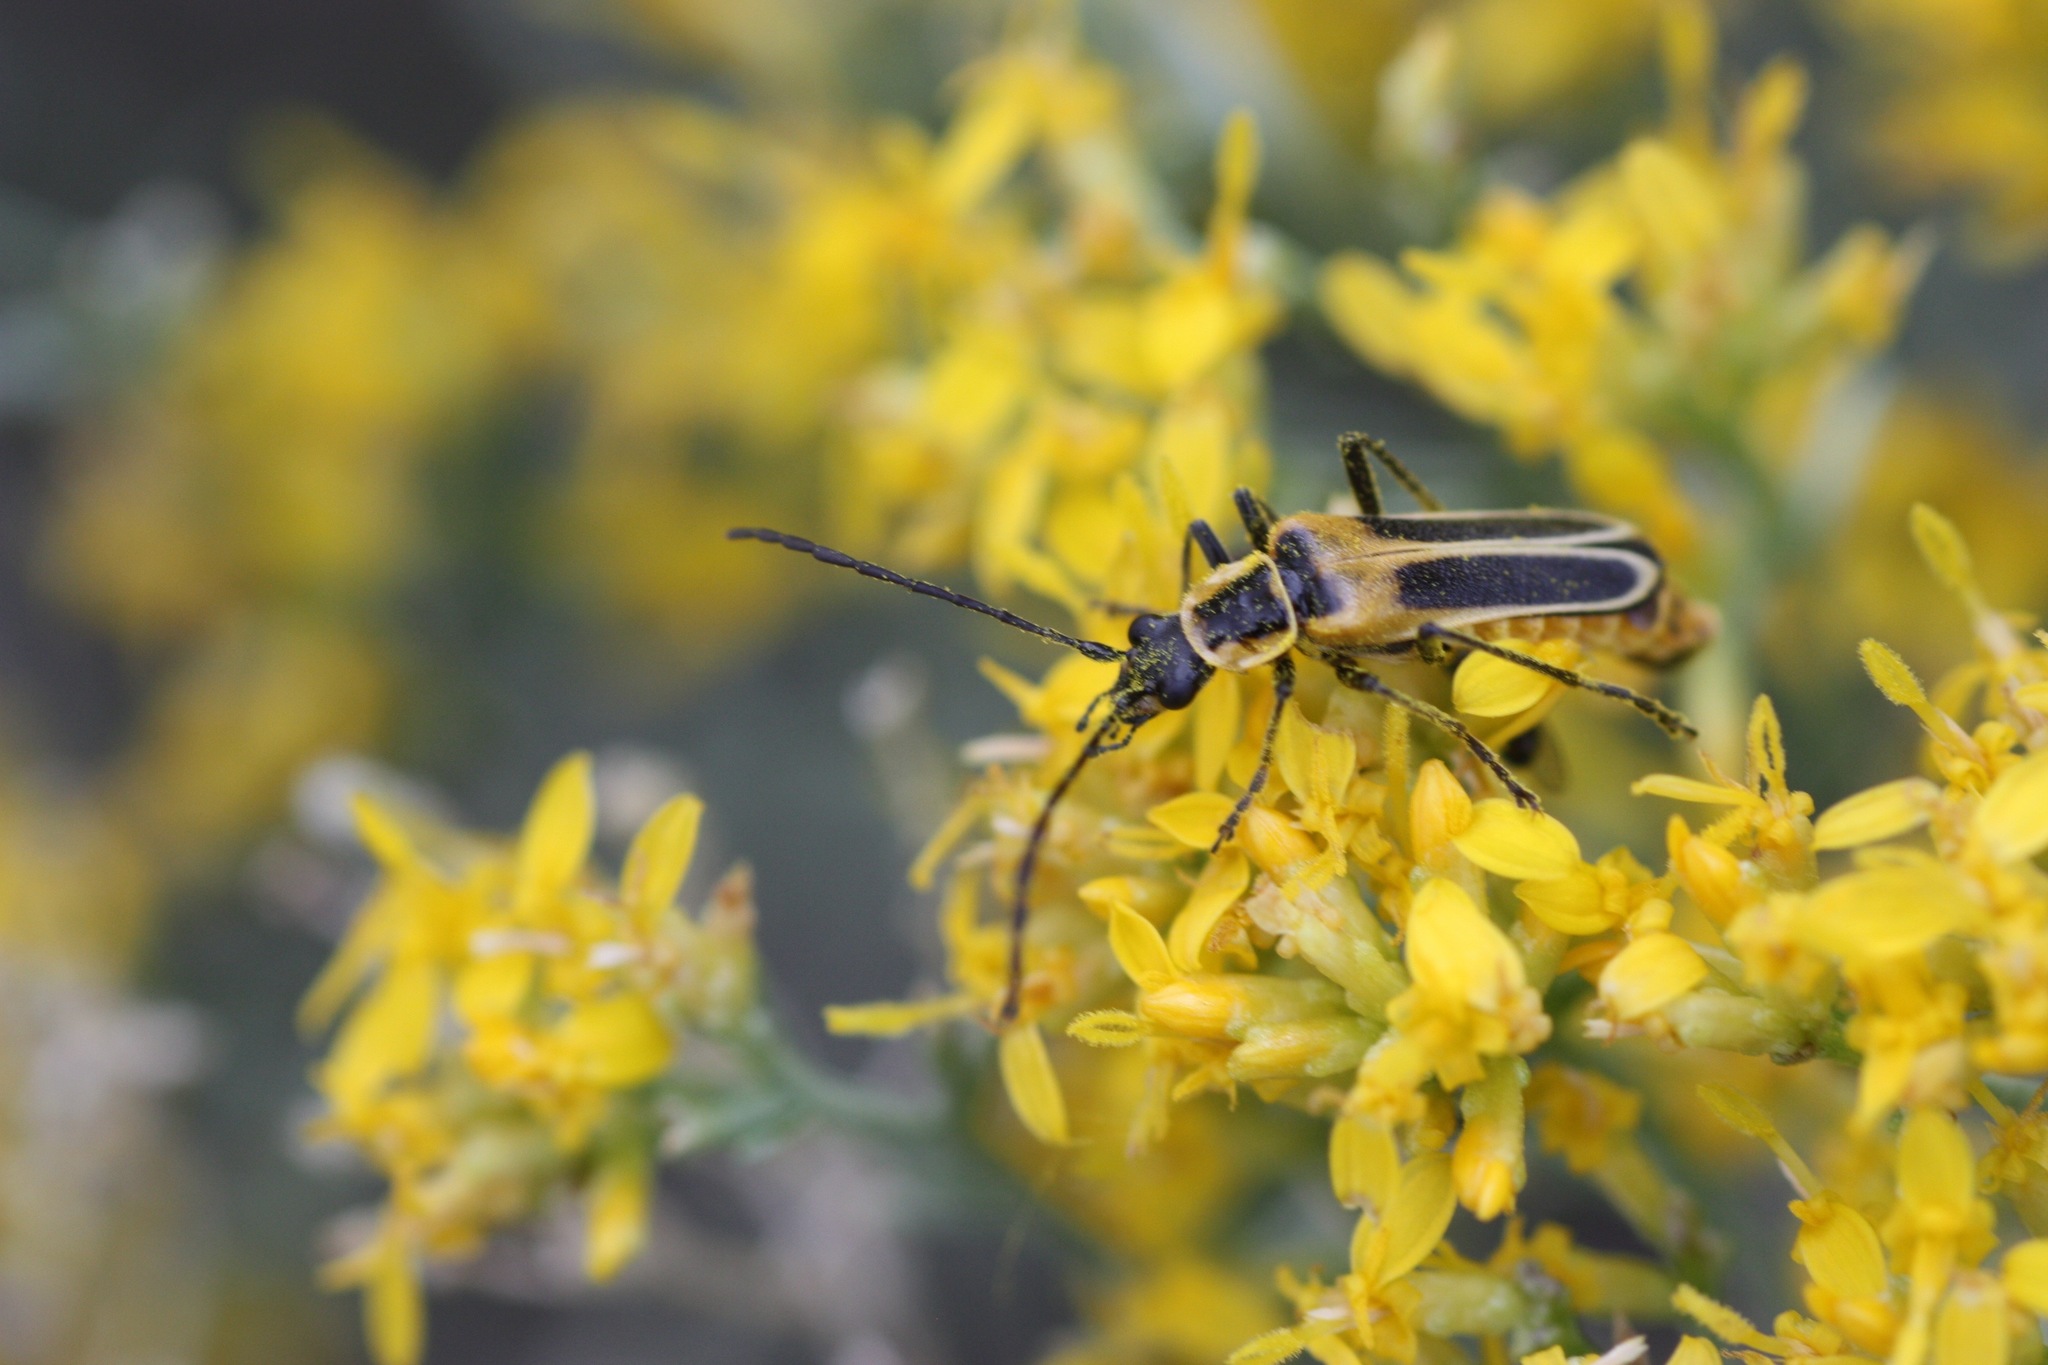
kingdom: Animalia
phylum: Arthropoda
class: Insecta
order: Coleoptera
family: Cantharidae
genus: Chauliognathus
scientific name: Chauliognathus lewisi
